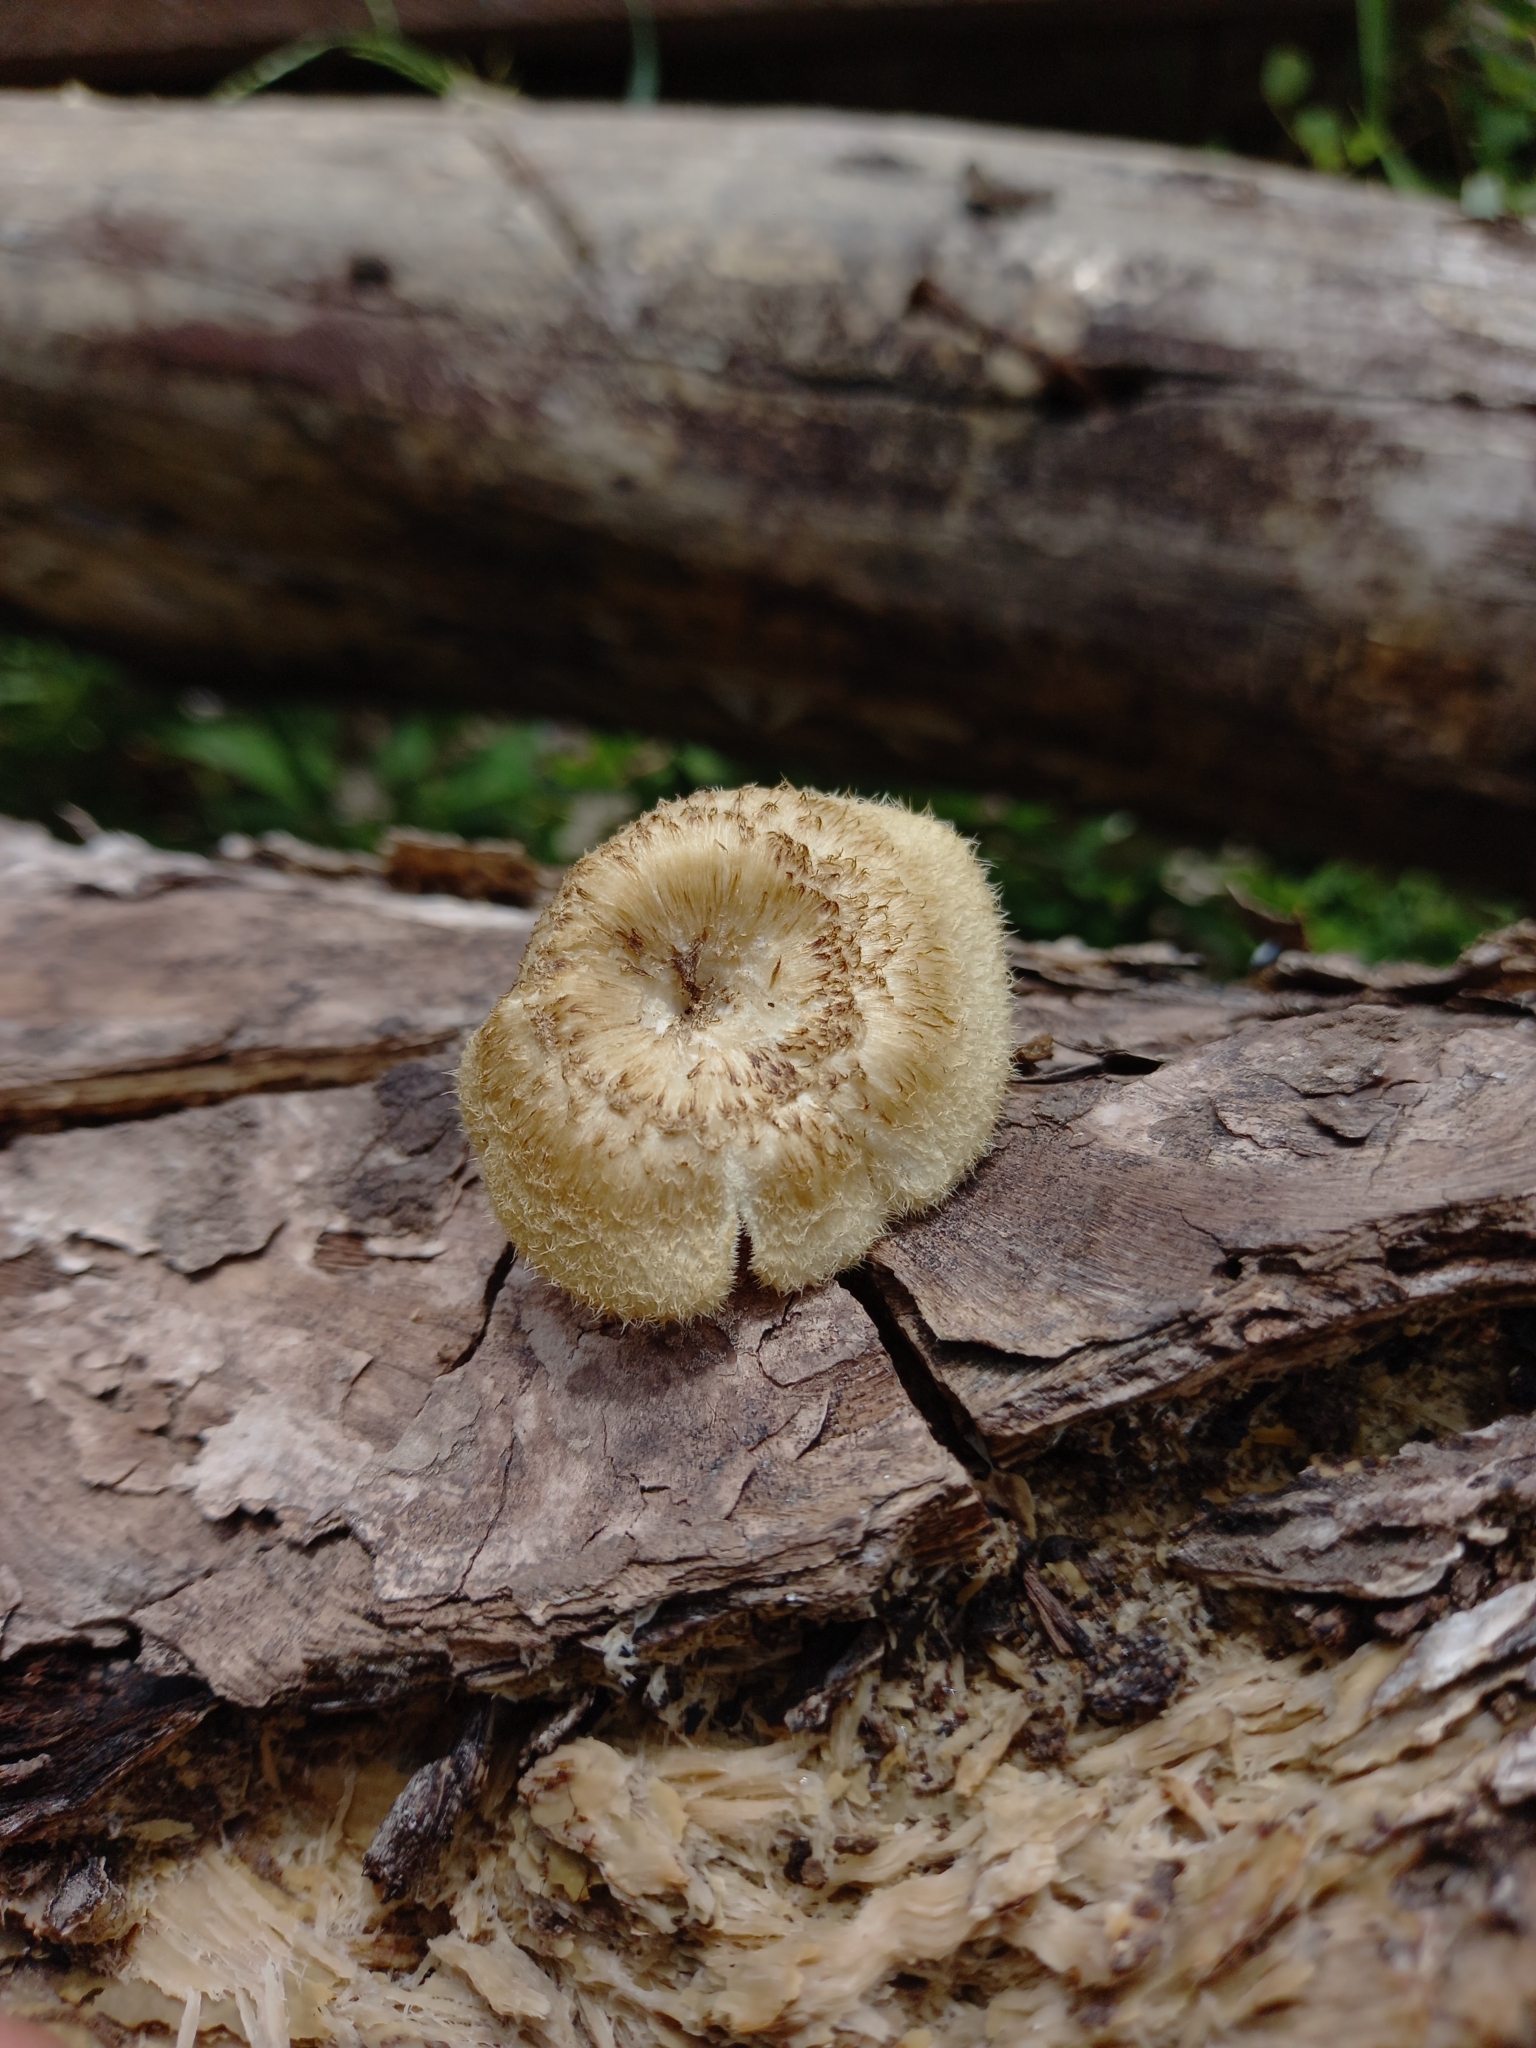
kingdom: Fungi
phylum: Basidiomycota
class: Agaricomycetes
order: Polyporales
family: Polyporaceae
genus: Lentinus
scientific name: Lentinus tigrinus
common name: Tiger sawgill
